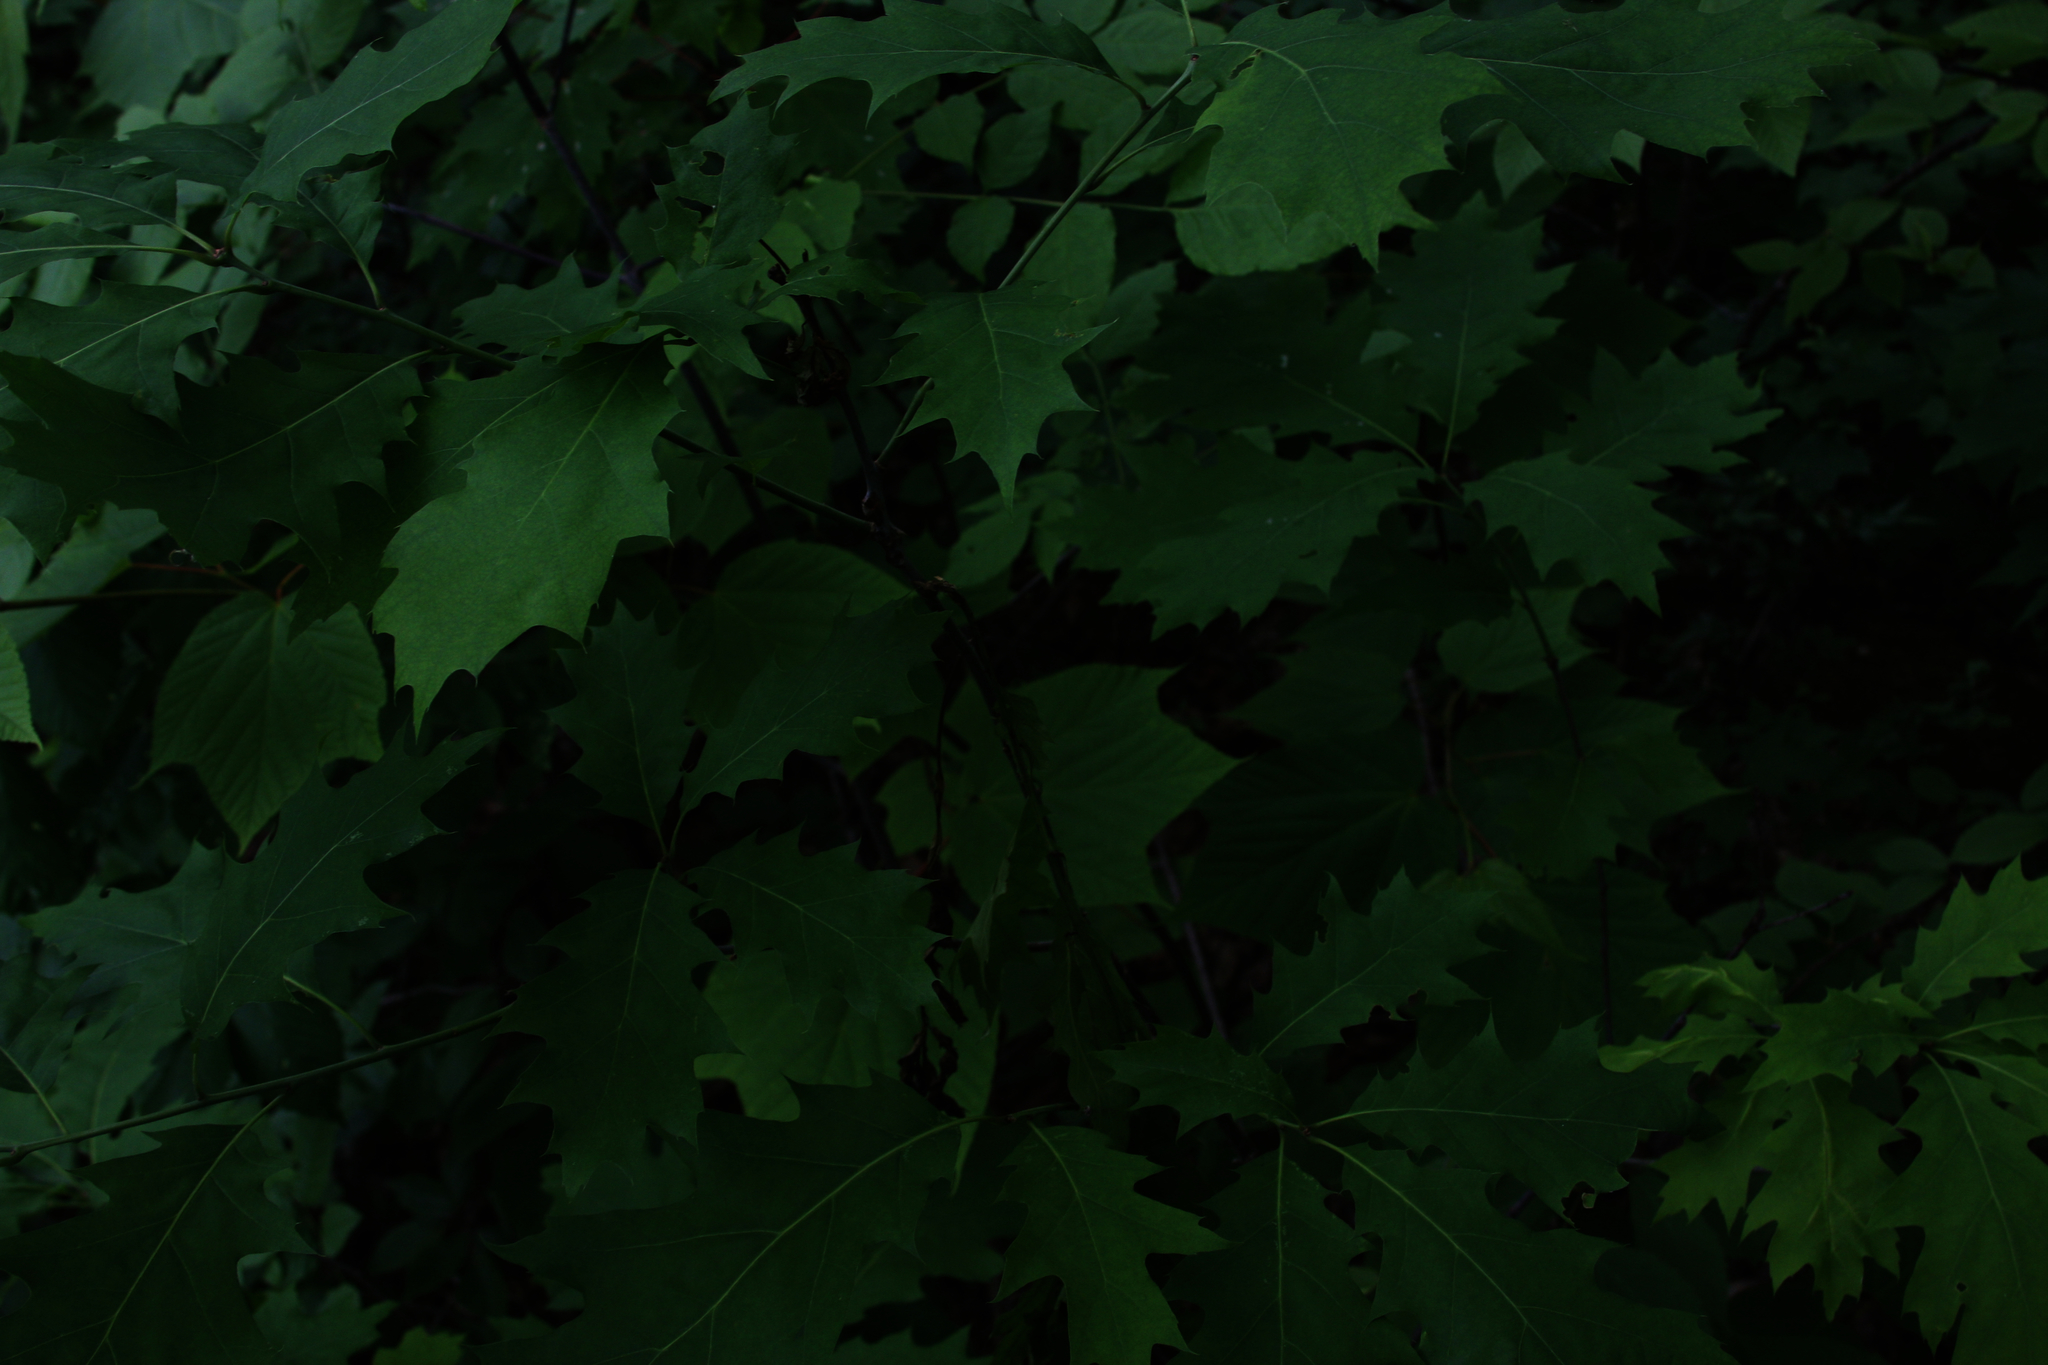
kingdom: Plantae
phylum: Tracheophyta
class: Magnoliopsida
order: Fagales
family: Fagaceae
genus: Quercus
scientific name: Quercus rubra
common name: Red oak
